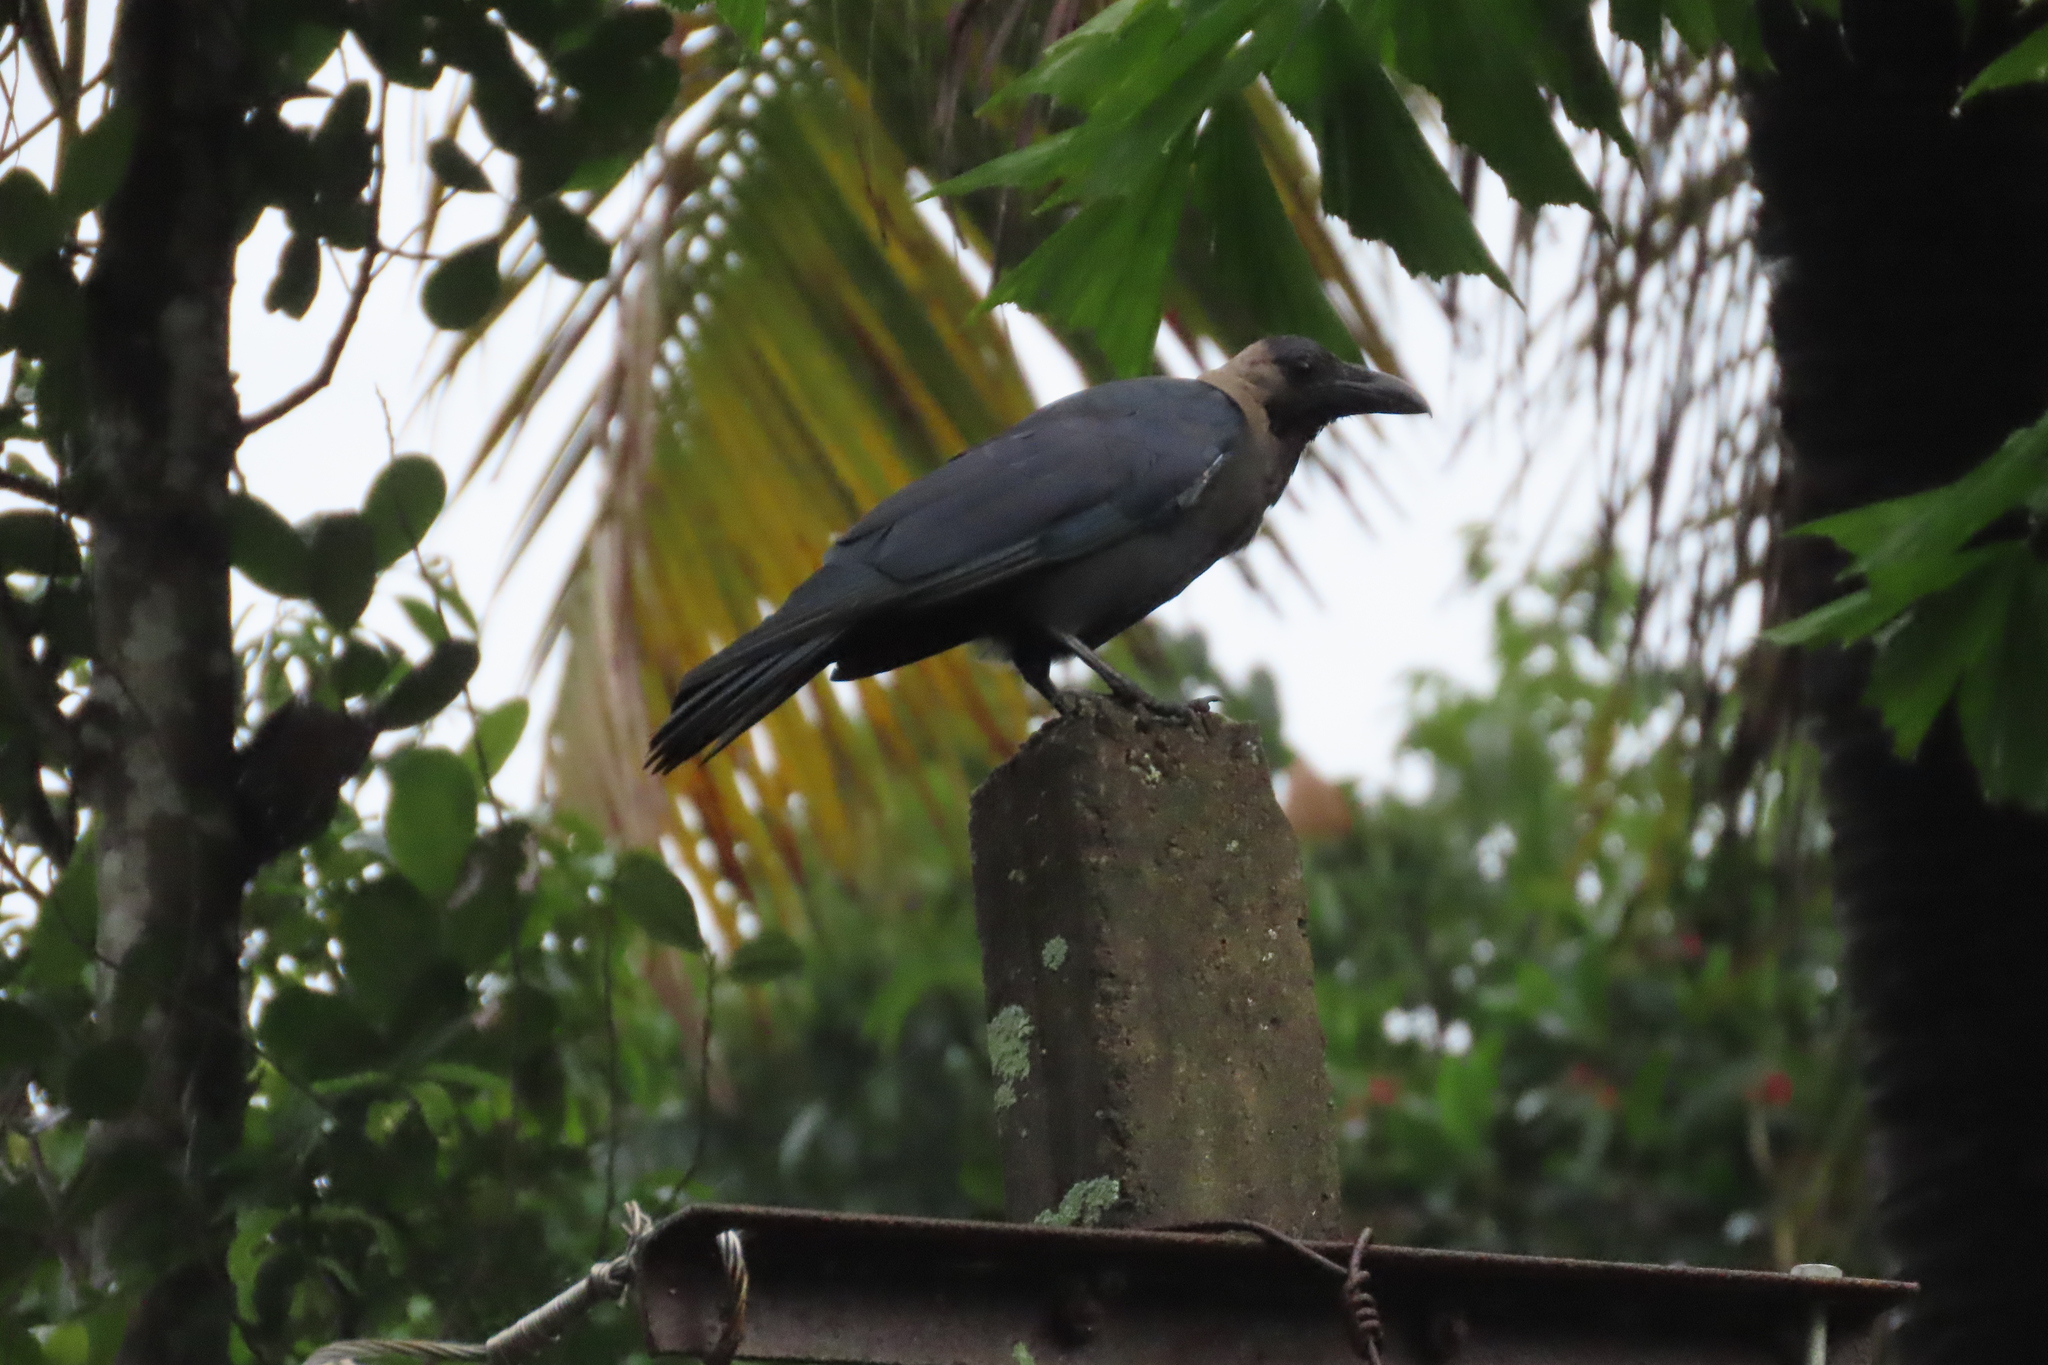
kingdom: Animalia
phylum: Chordata
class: Aves
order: Passeriformes
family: Corvidae
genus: Corvus
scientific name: Corvus splendens
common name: House crow
